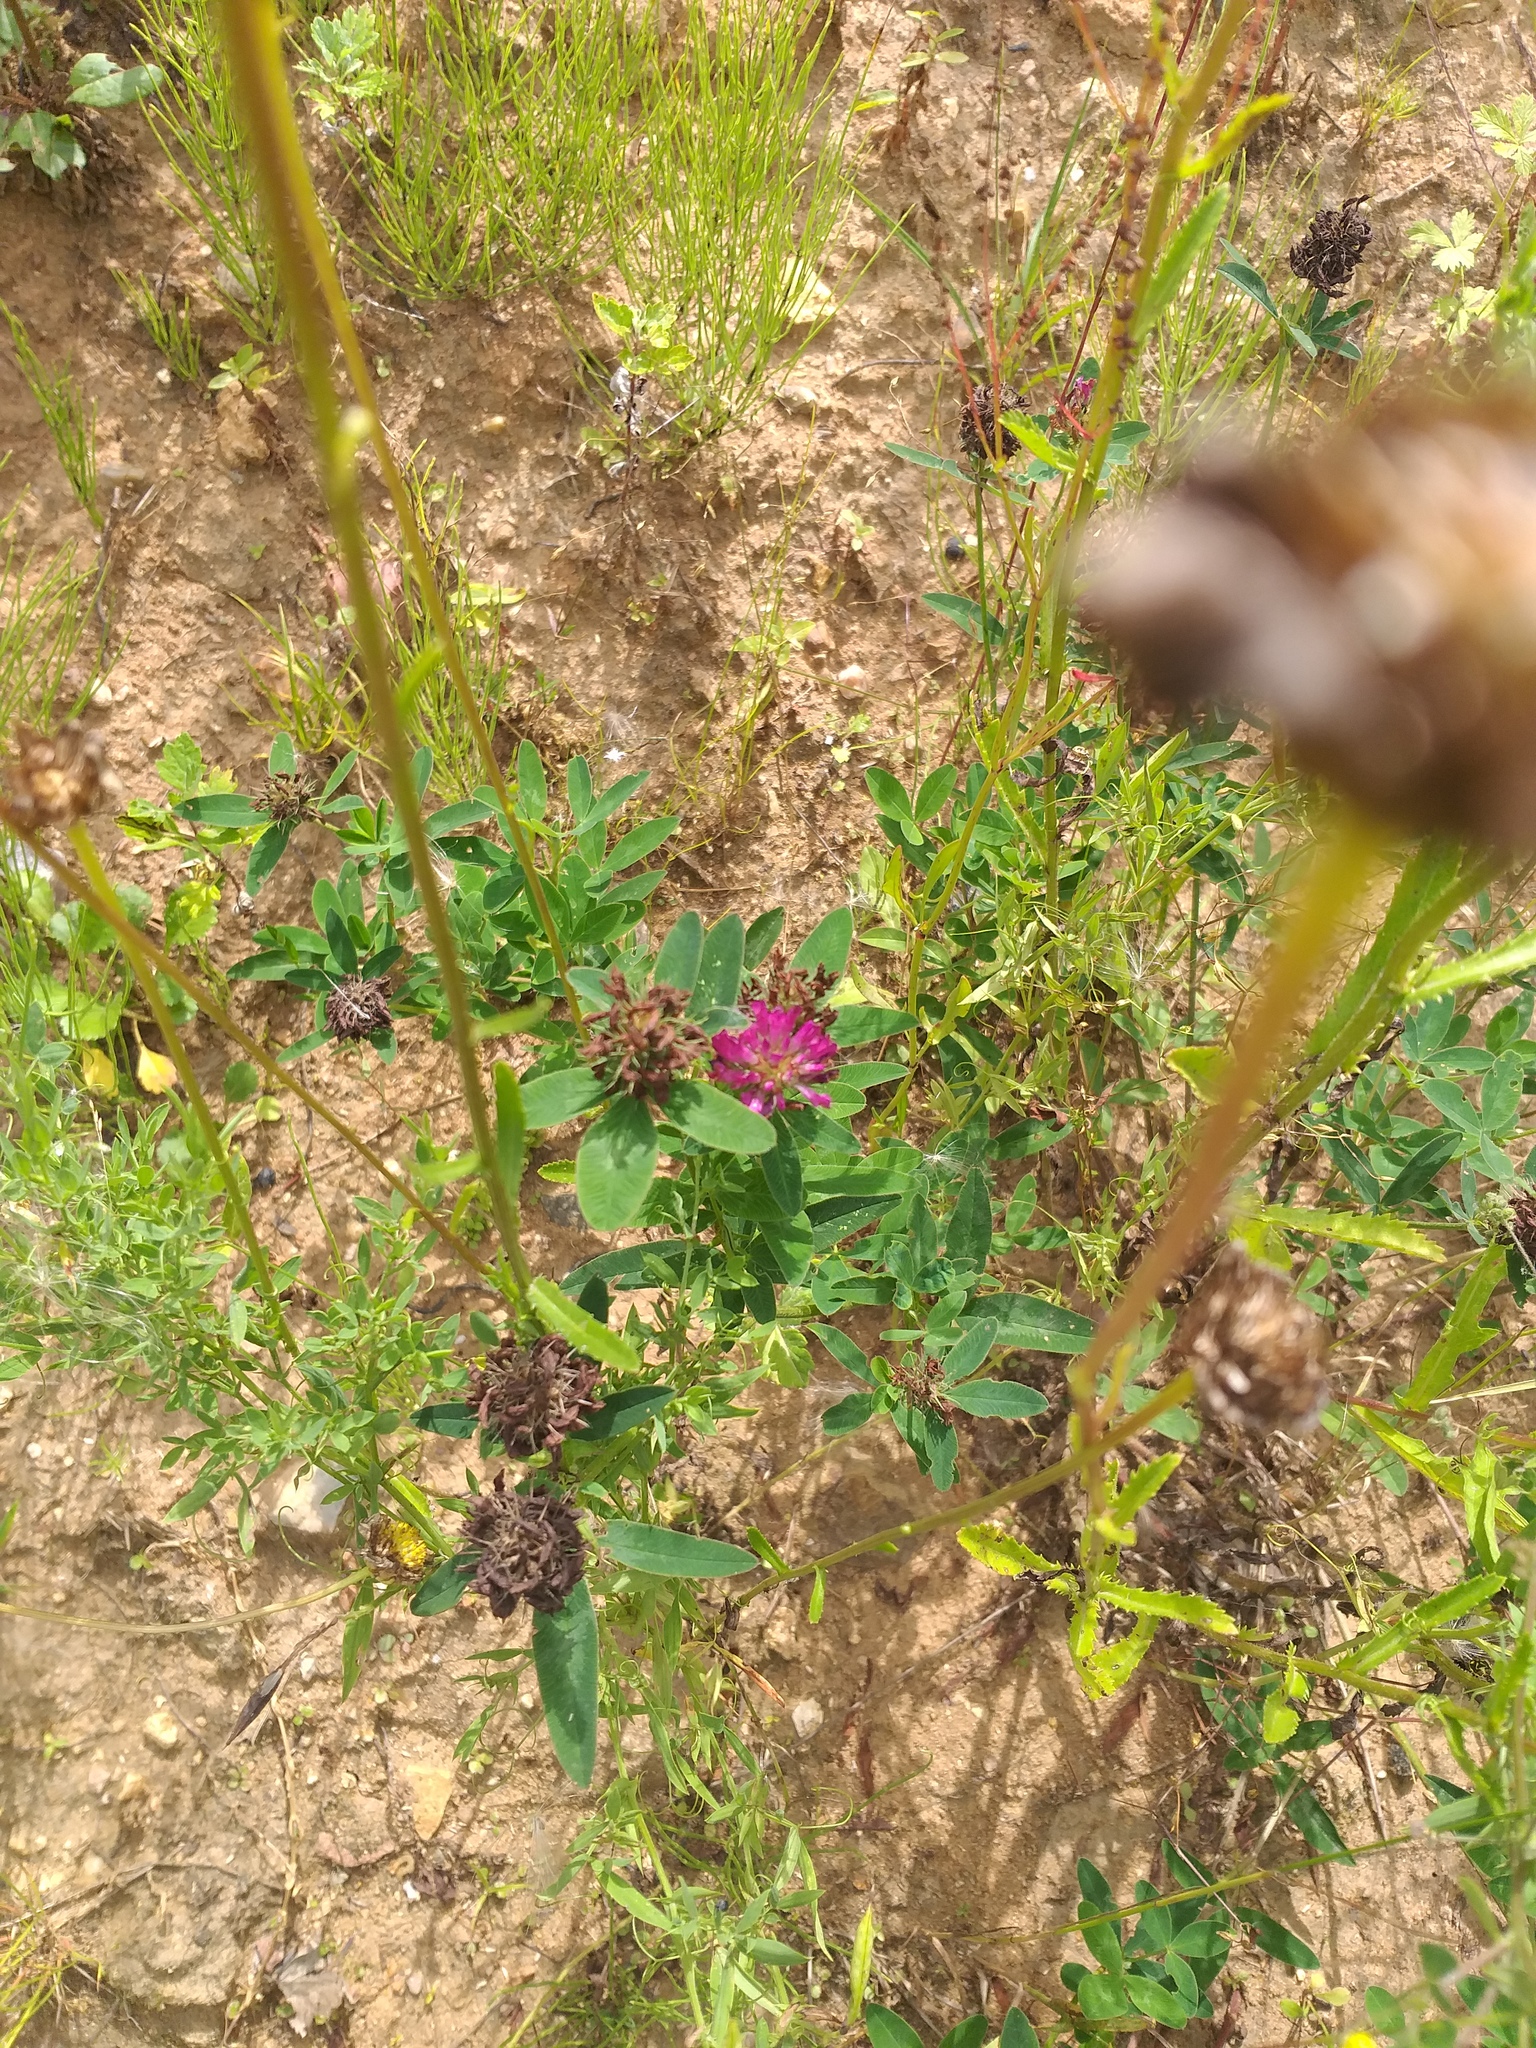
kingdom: Plantae
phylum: Tracheophyta
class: Magnoliopsida
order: Fabales
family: Fabaceae
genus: Trifolium
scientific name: Trifolium medium
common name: Zigzag clover
